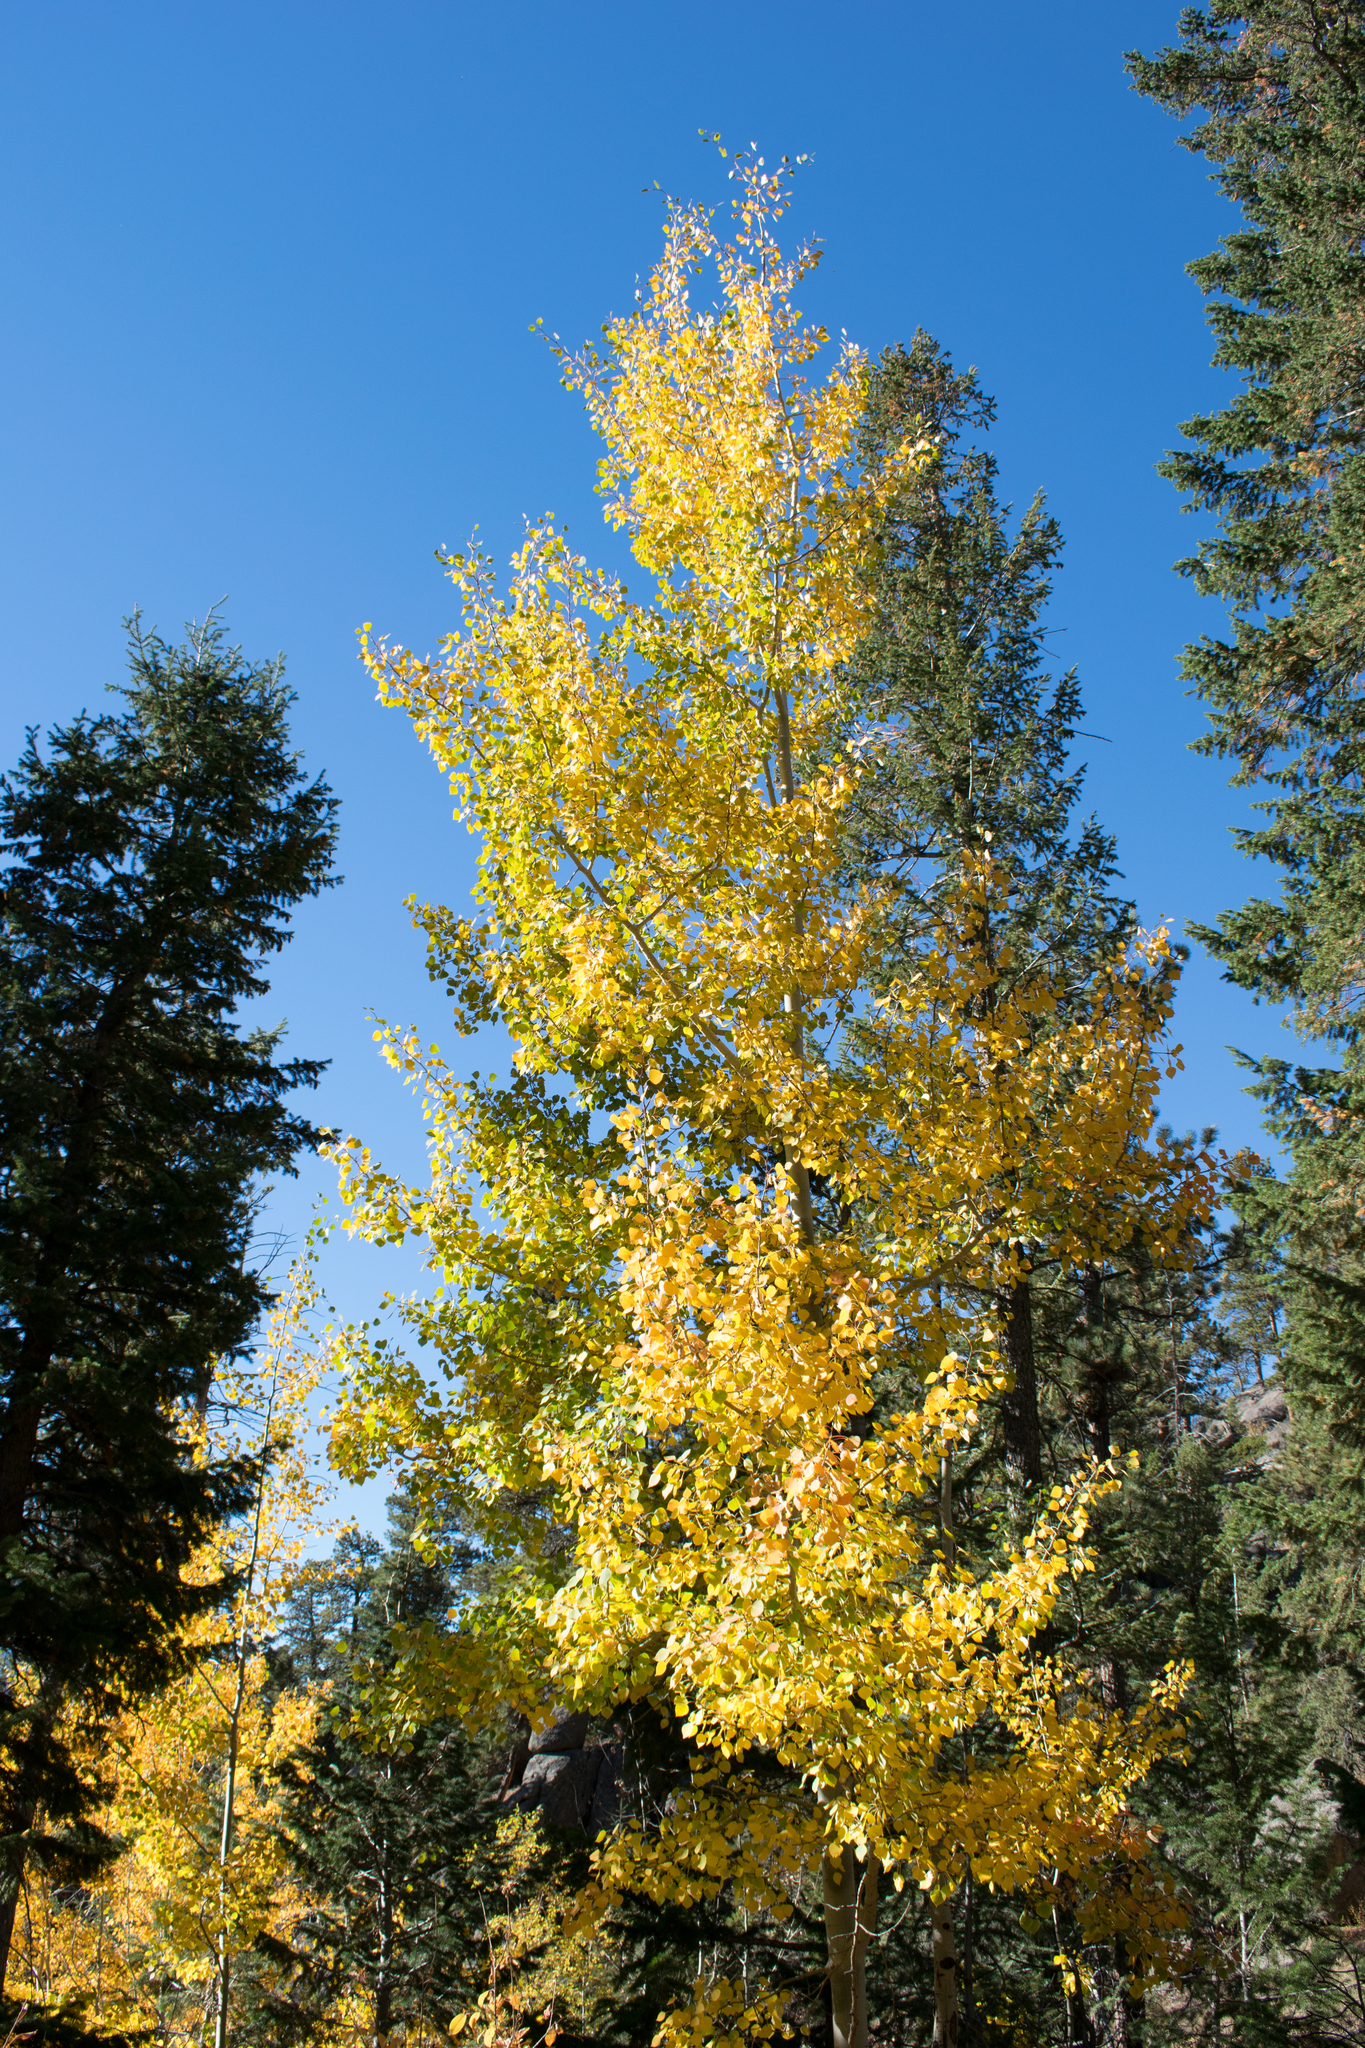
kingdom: Plantae
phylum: Tracheophyta
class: Magnoliopsida
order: Malpighiales
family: Salicaceae
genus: Populus
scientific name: Populus tremuloides
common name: Quaking aspen
